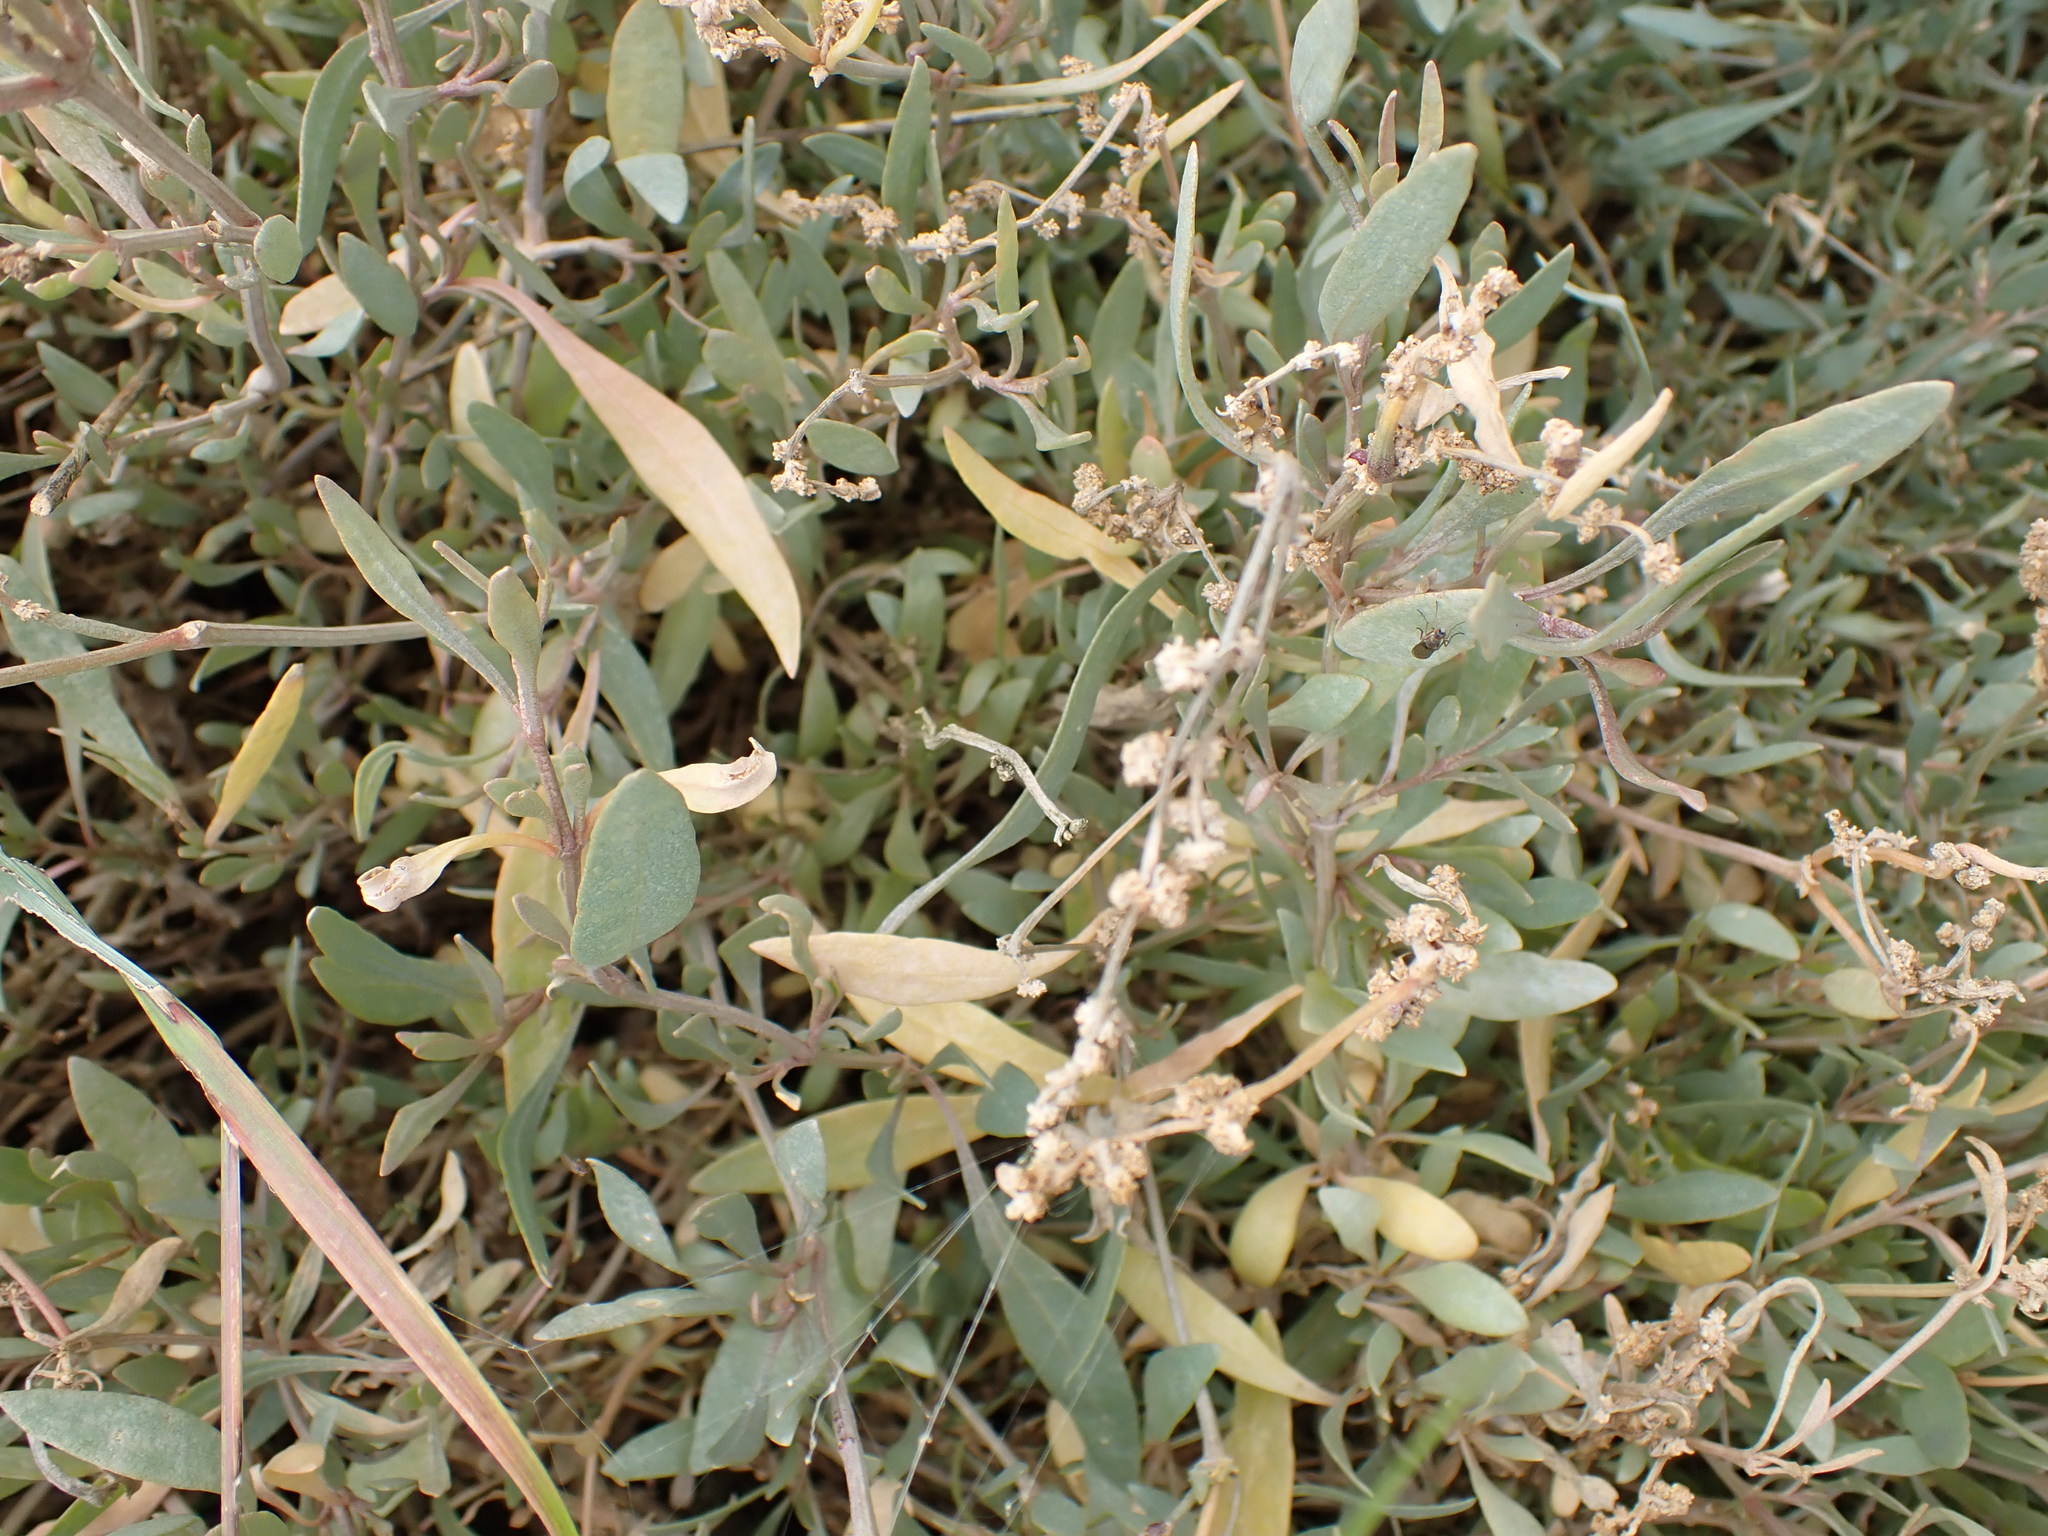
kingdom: Plantae
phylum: Tracheophyta
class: Magnoliopsida
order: Caryophyllales
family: Amaranthaceae
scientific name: Amaranthaceae
